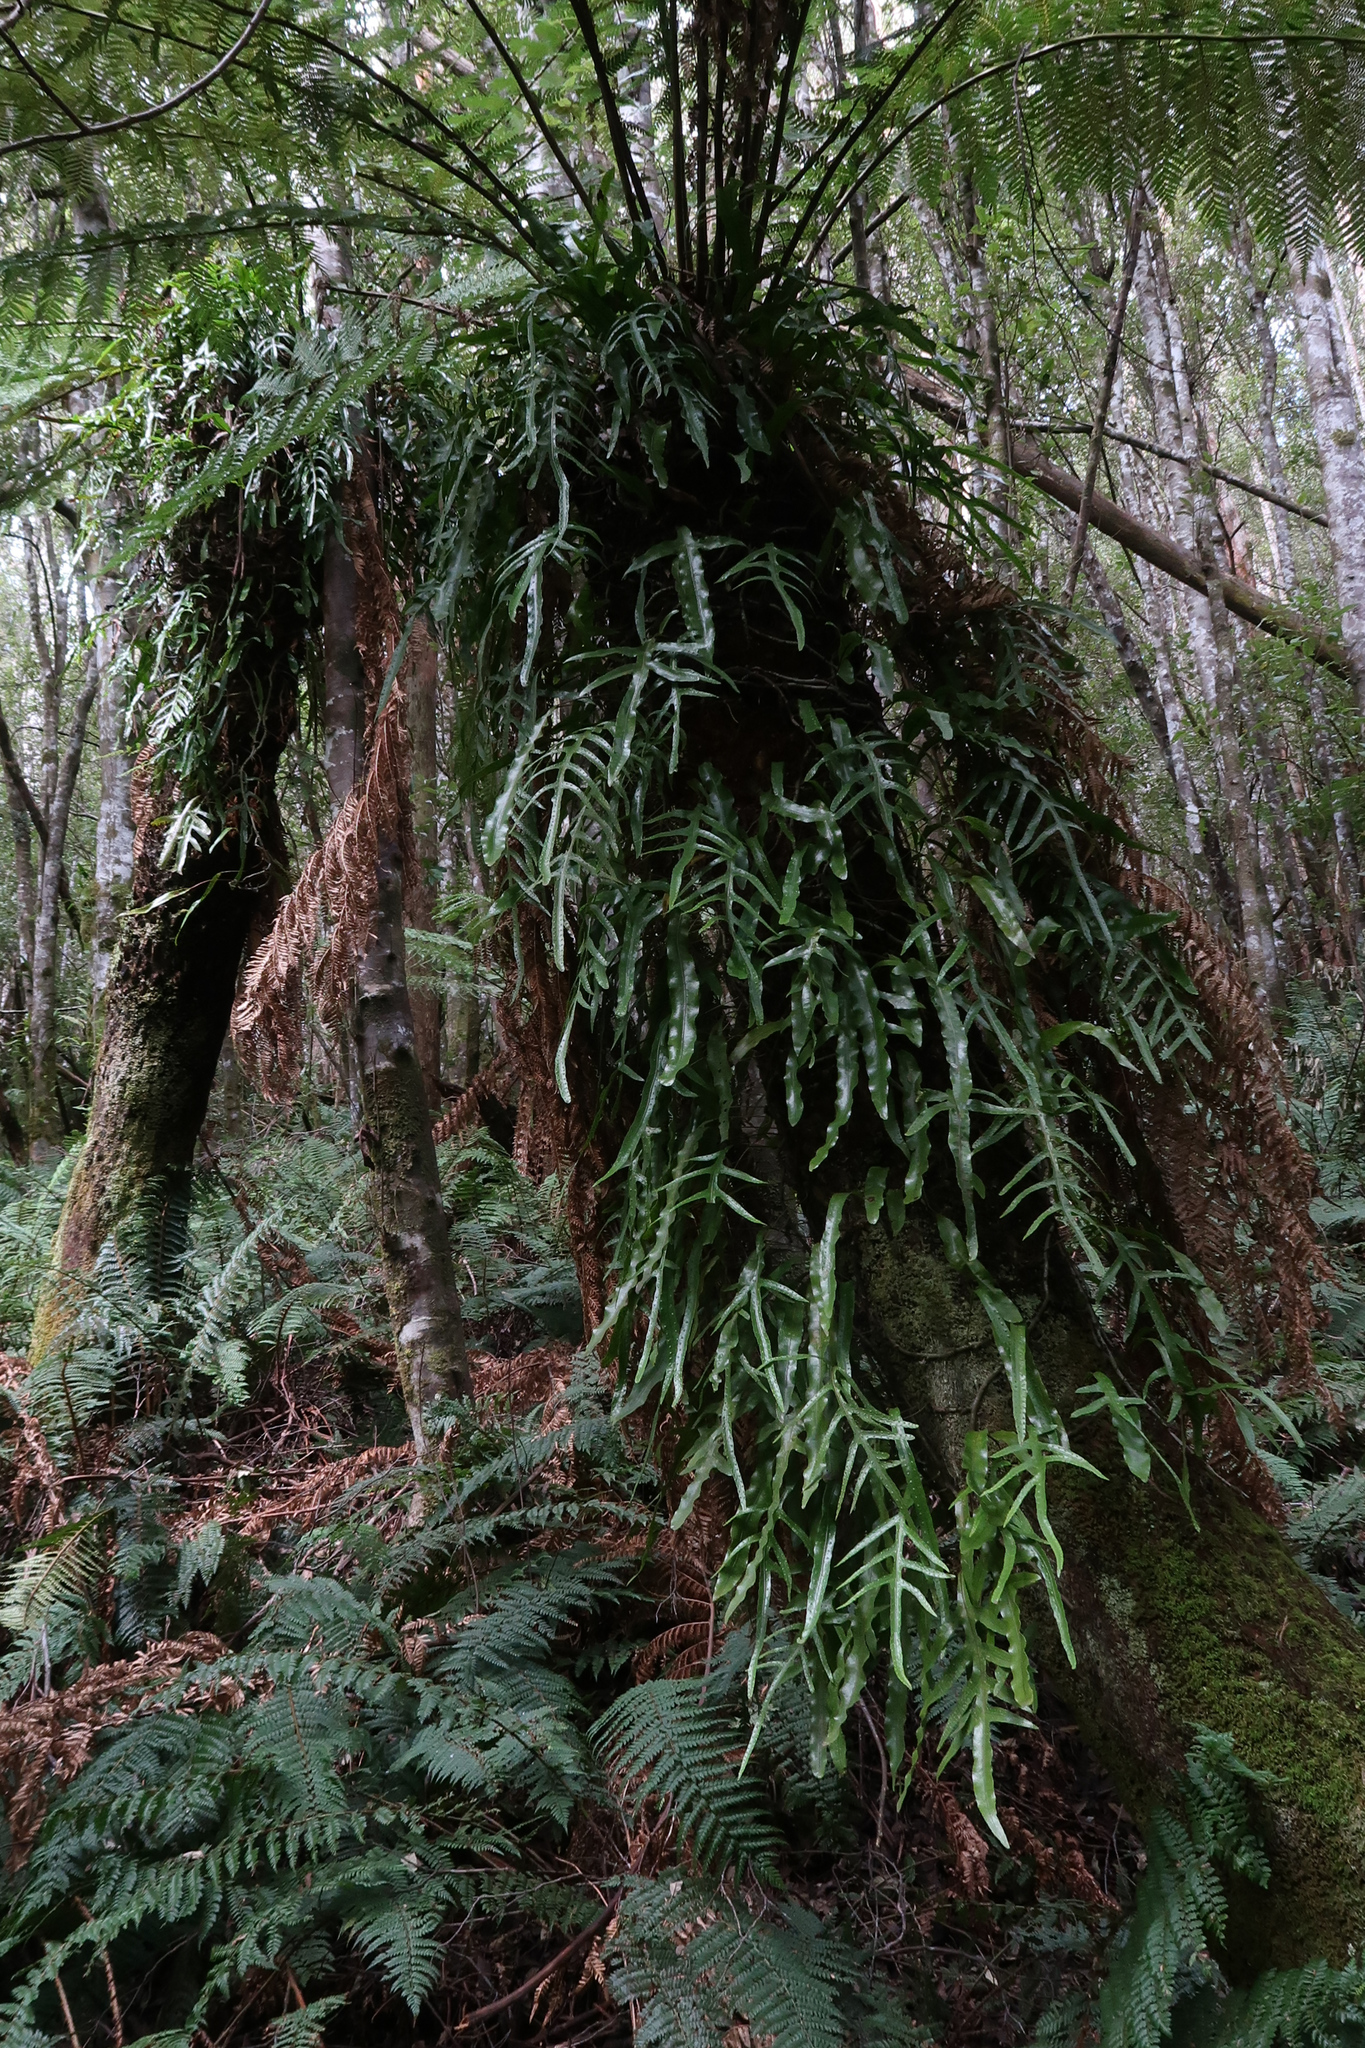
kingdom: Plantae
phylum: Tracheophyta
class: Polypodiopsida
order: Polypodiales
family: Polypodiaceae
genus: Lecanopteris
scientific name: Lecanopteris pustulata
